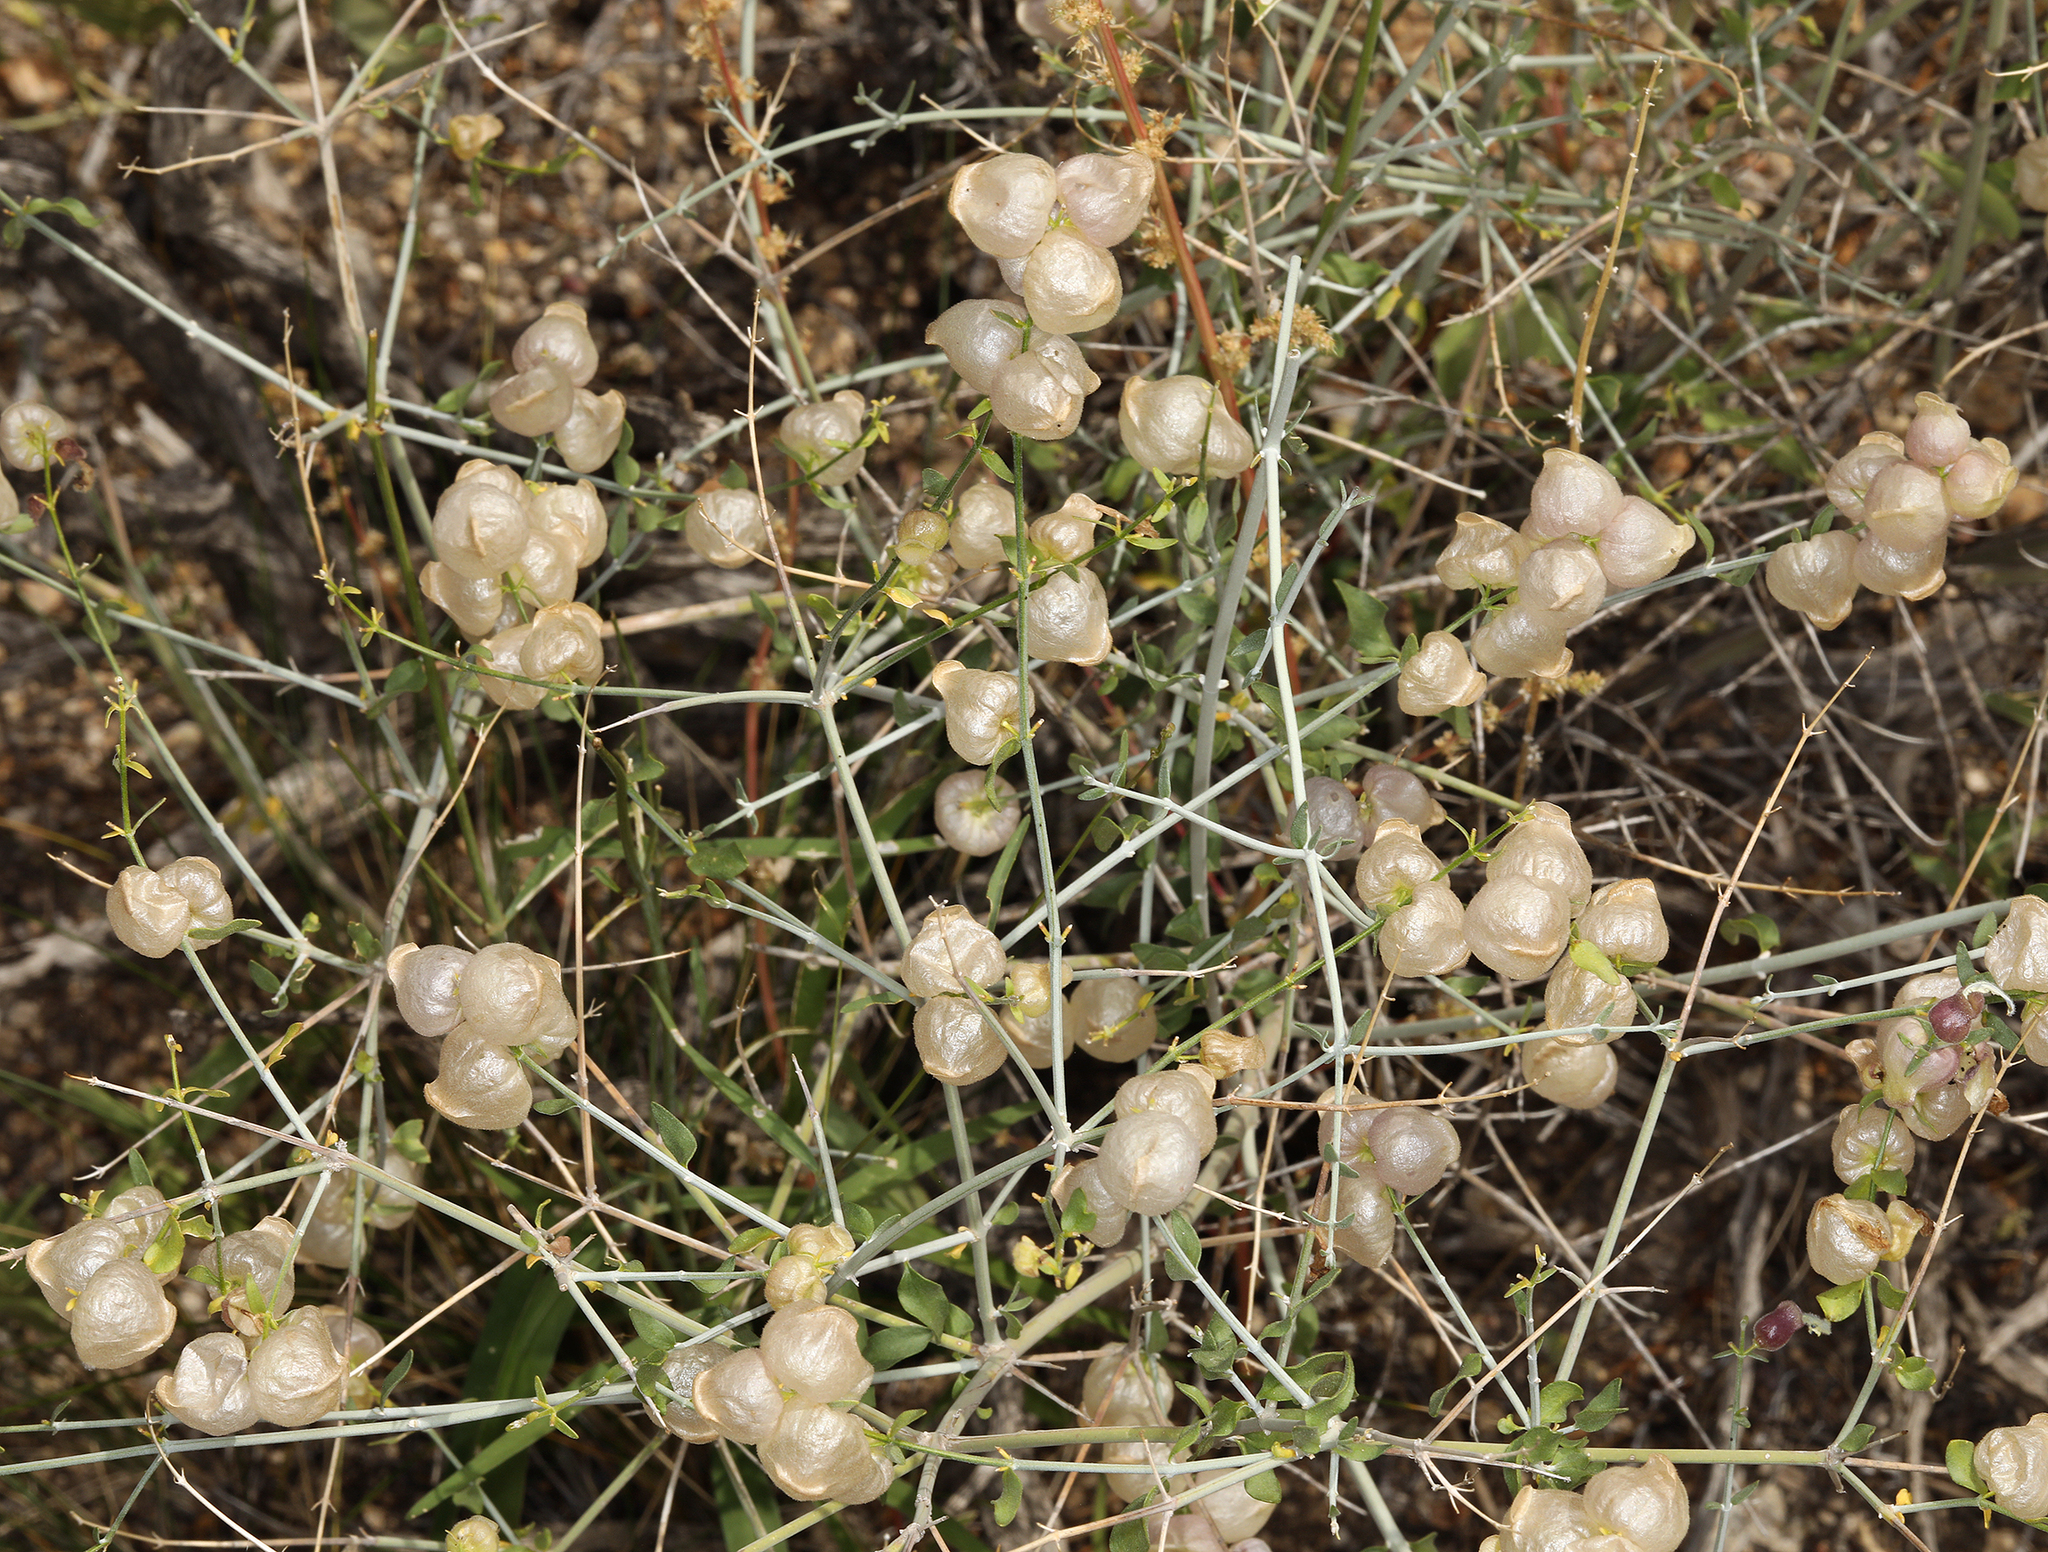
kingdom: Plantae
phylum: Tracheophyta
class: Magnoliopsida
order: Lamiales
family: Lamiaceae
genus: Scutellaria
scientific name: Scutellaria mexicana
